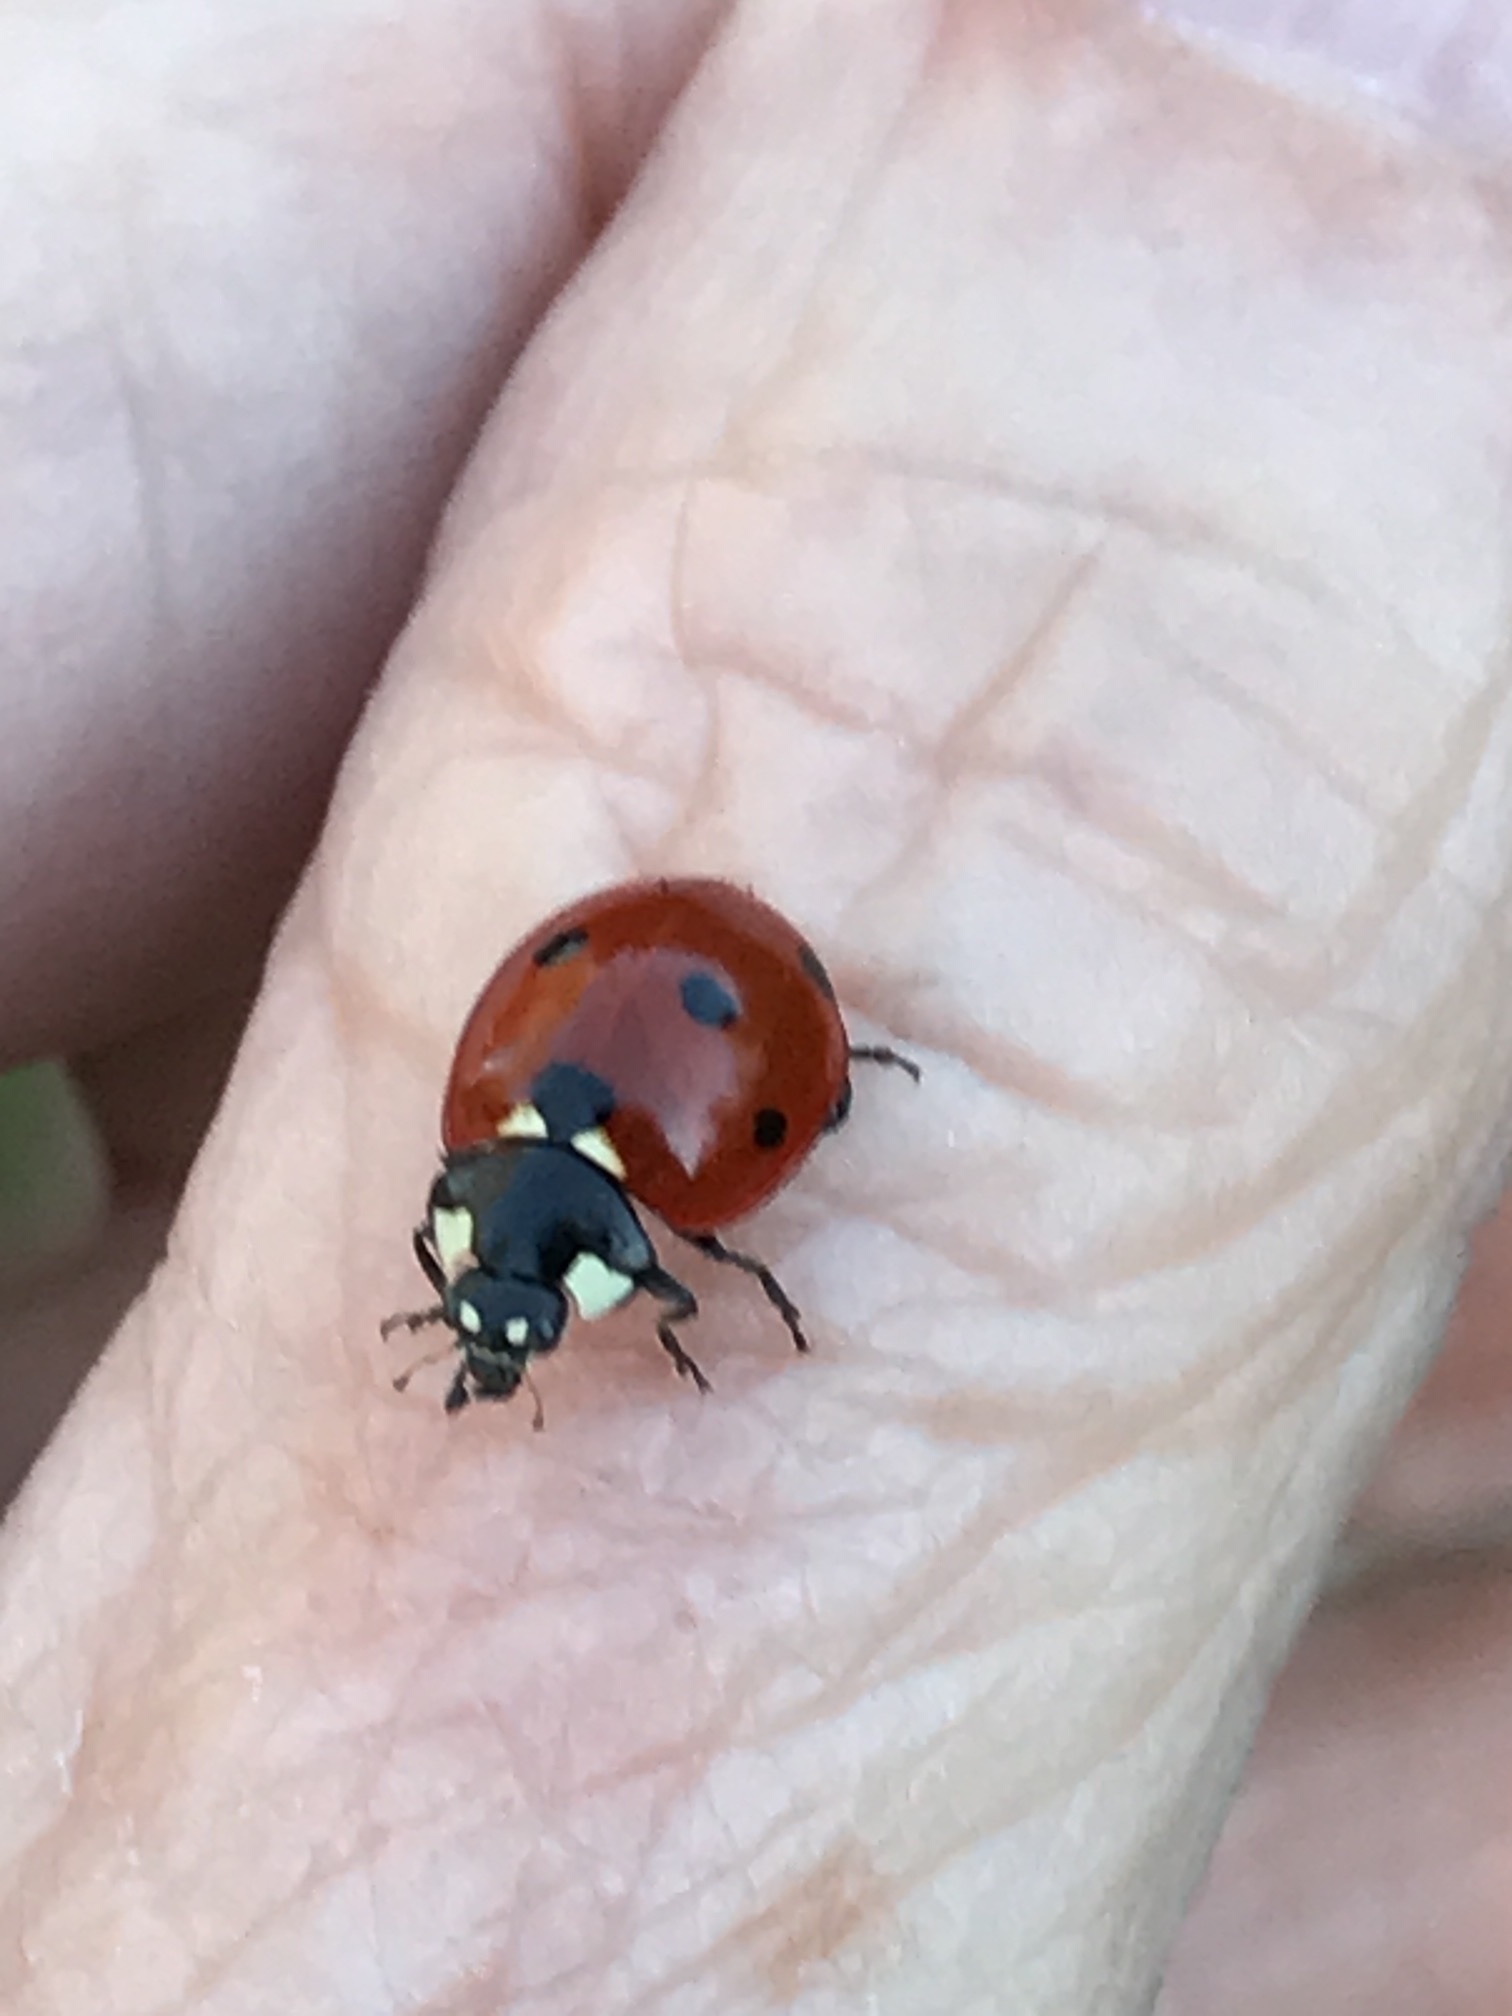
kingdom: Animalia
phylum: Arthropoda
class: Insecta
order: Coleoptera
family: Coccinellidae
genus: Coccinella
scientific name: Coccinella septempunctata
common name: Sevenspotted lady beetle
